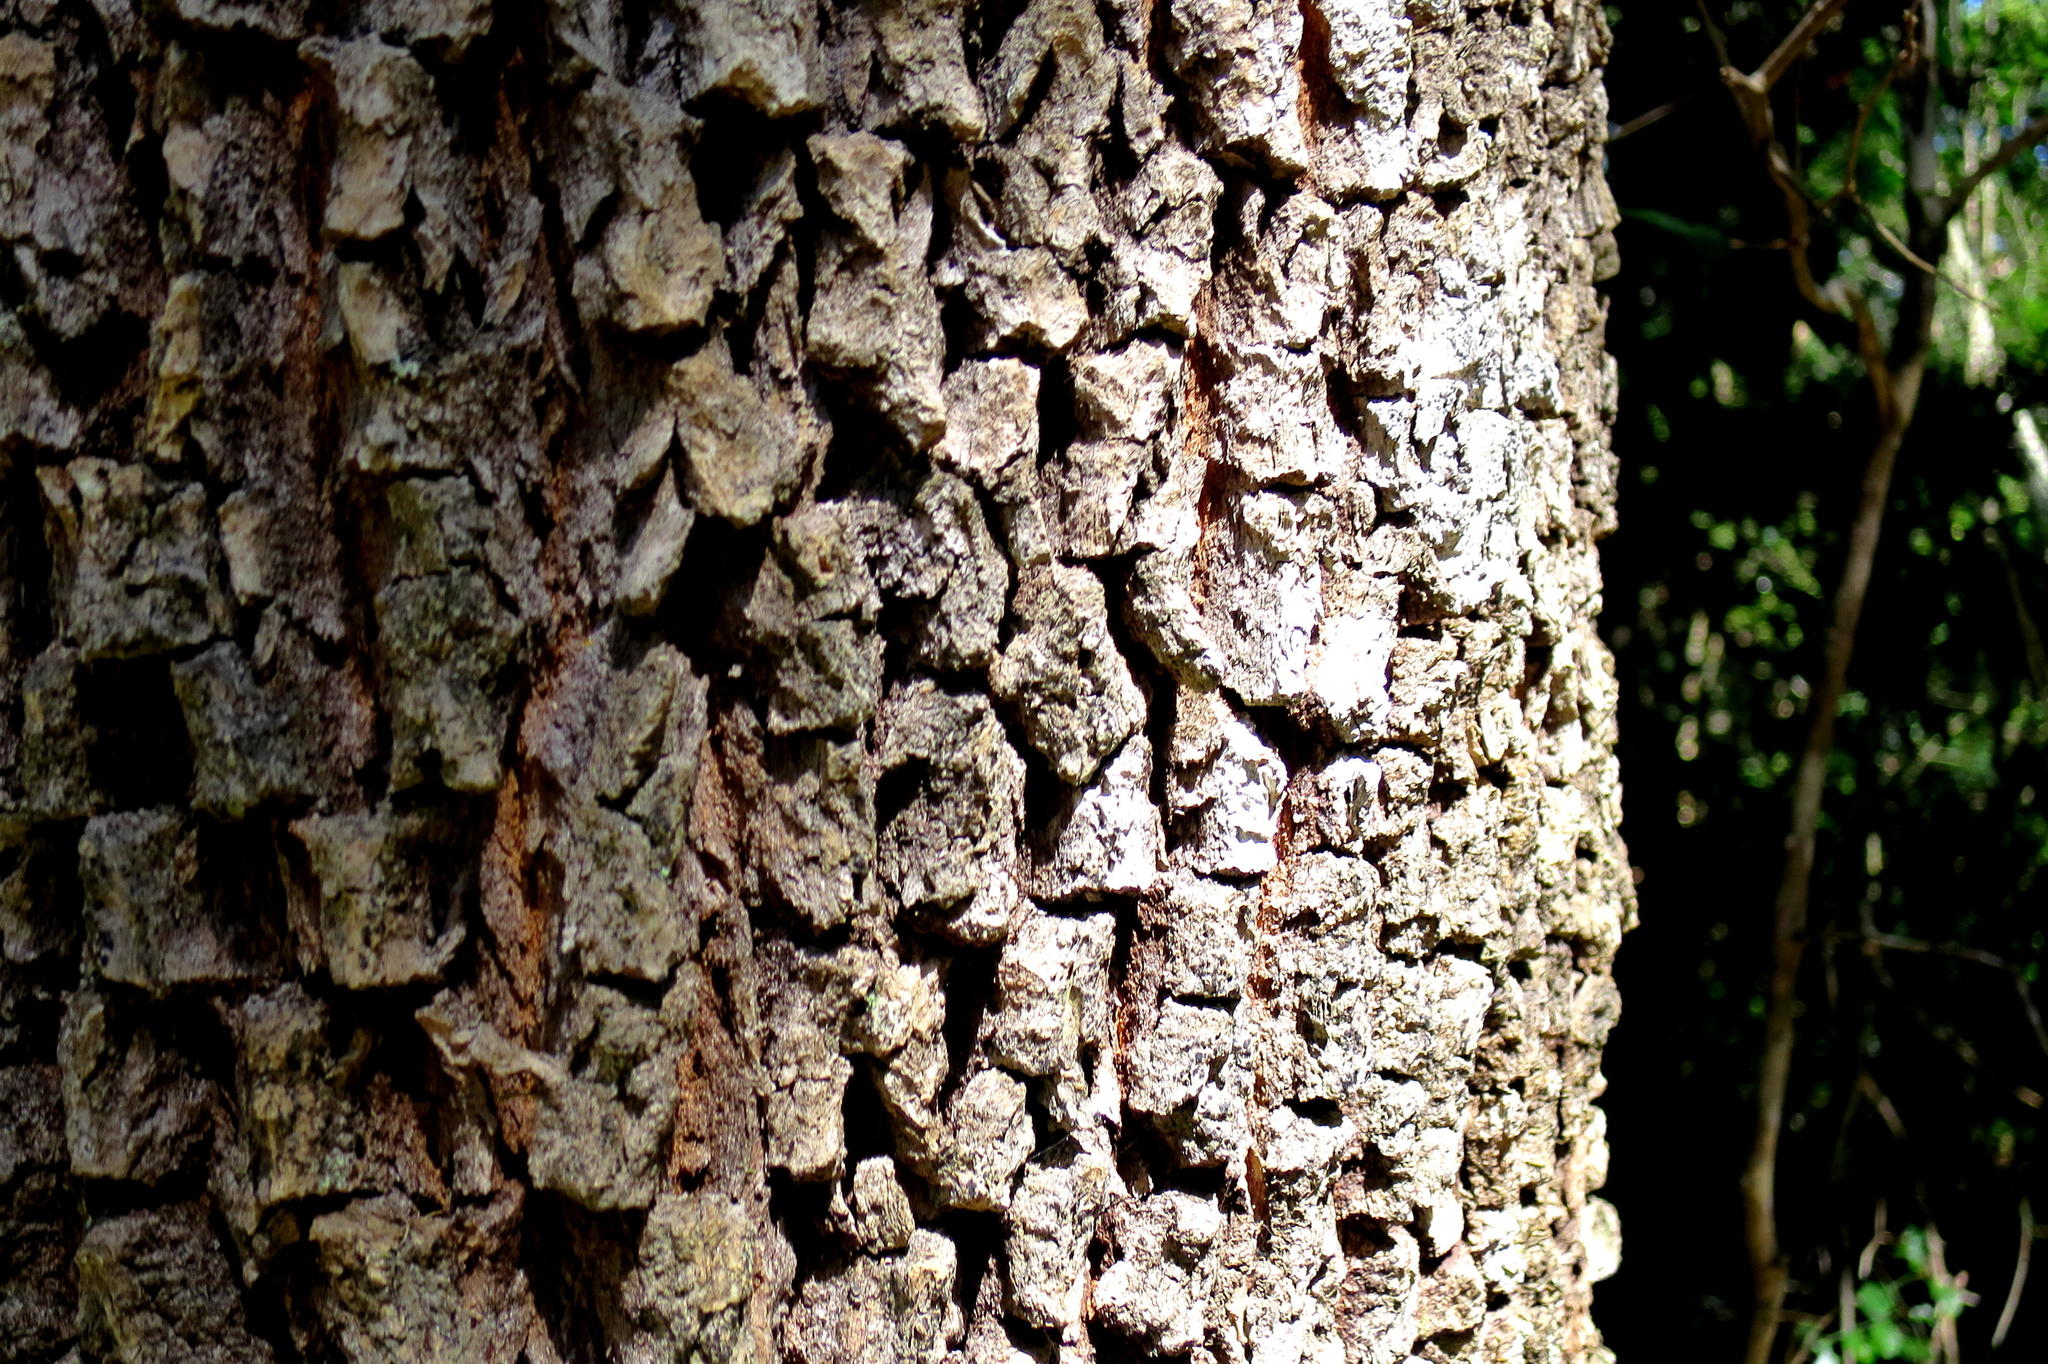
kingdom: Plantae
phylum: Tracheophyta
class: Magnoliopsida
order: Myrtales
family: Penaeaceae
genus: Olinia
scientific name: Olinia ventosa
